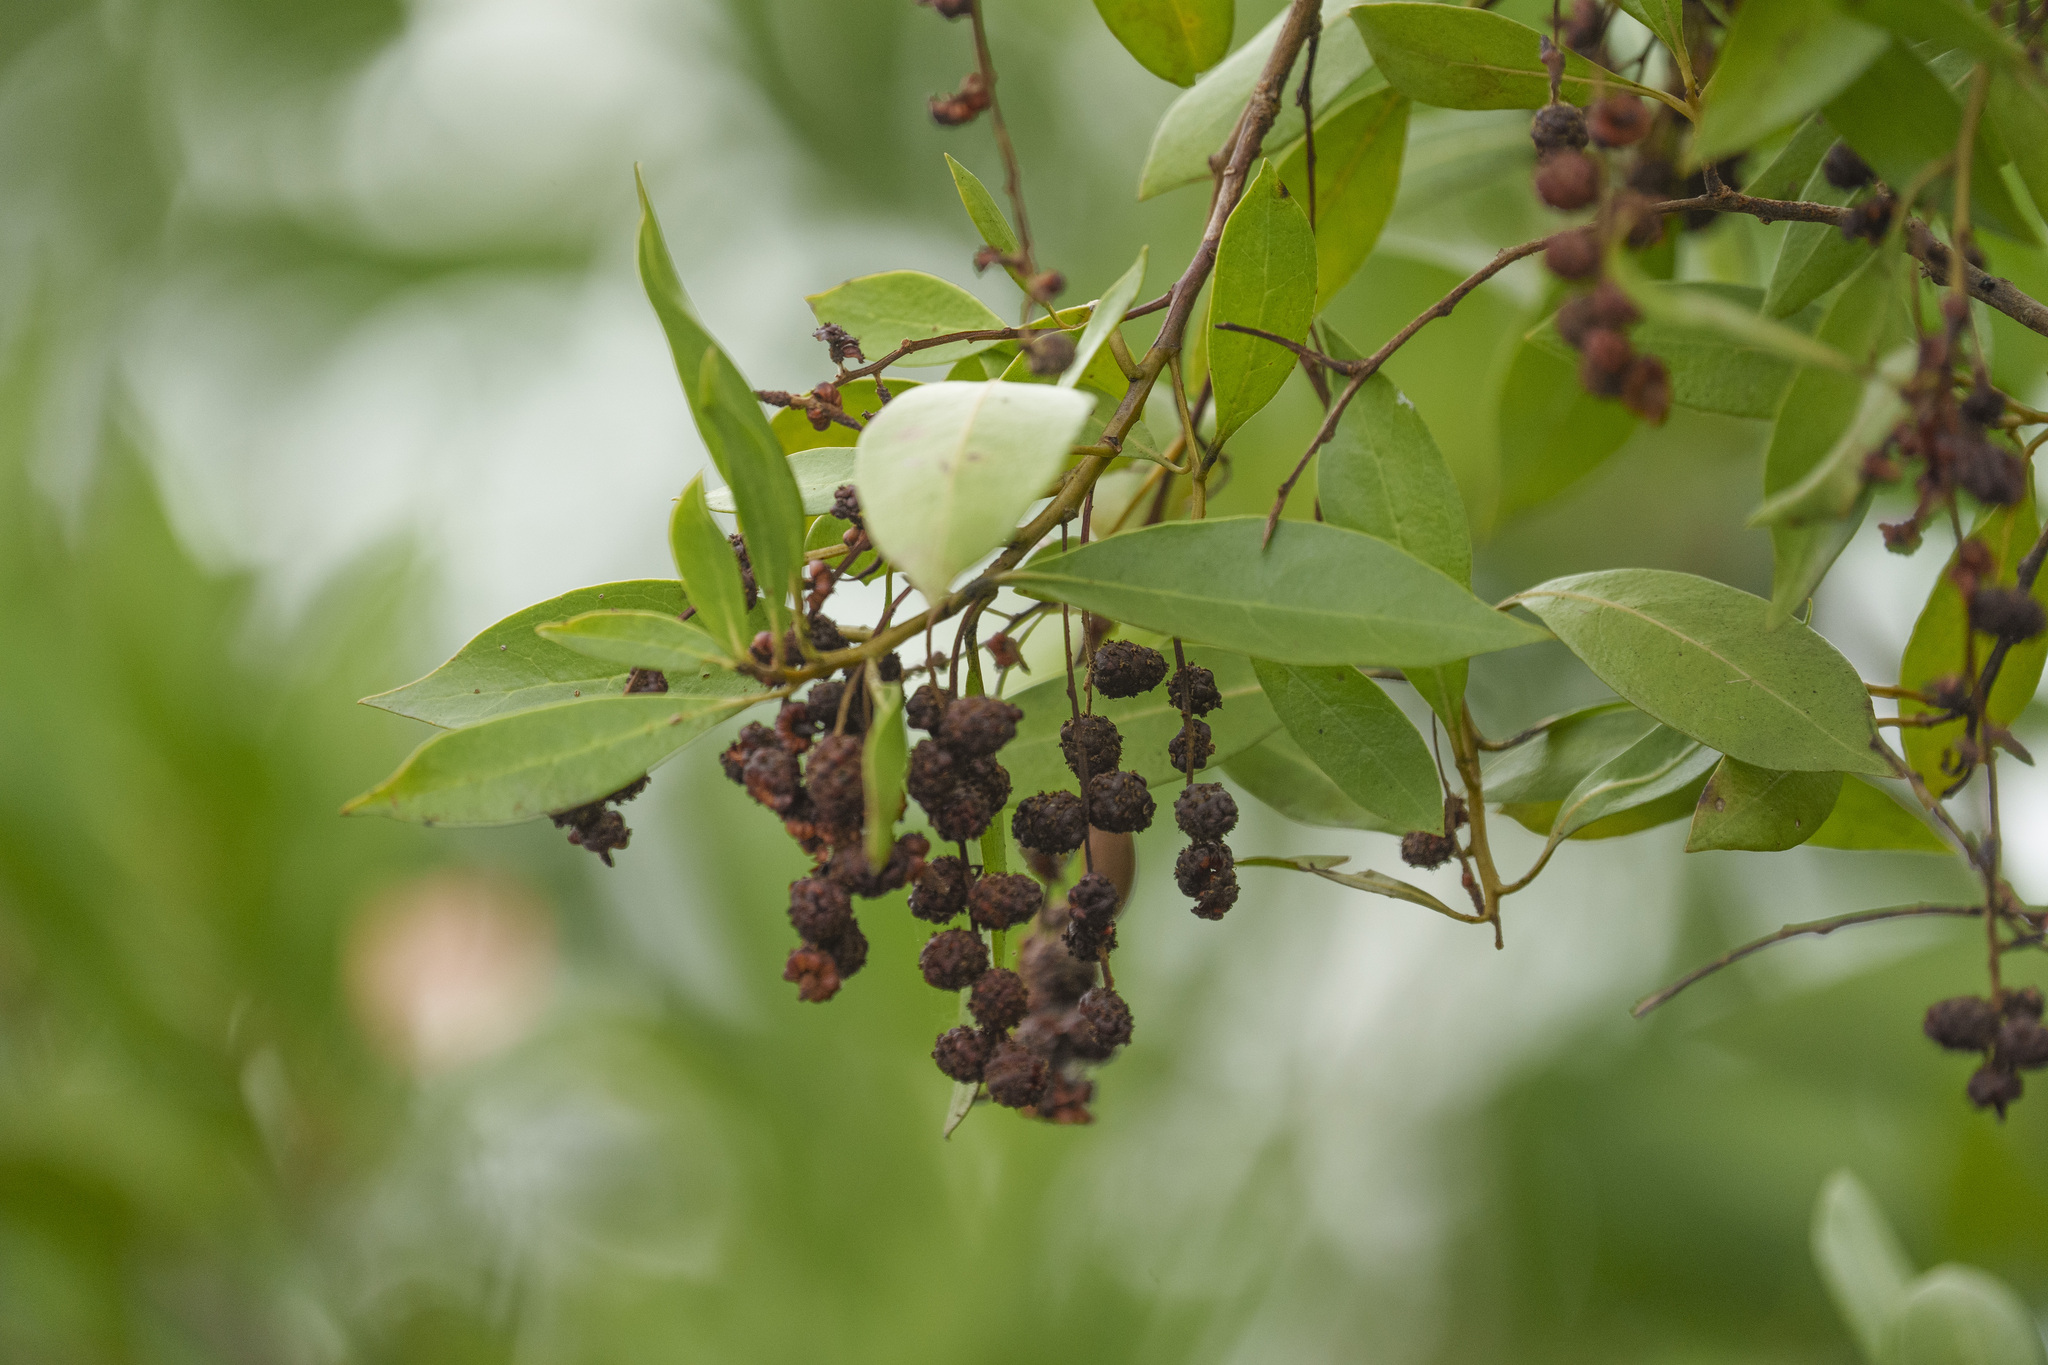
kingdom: Plantae
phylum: Tracheophyta
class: Magnoliopsida
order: Myrtales
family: Combretaceae
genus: Conocarpus
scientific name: Conocarpus erectus
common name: Button mangrove
